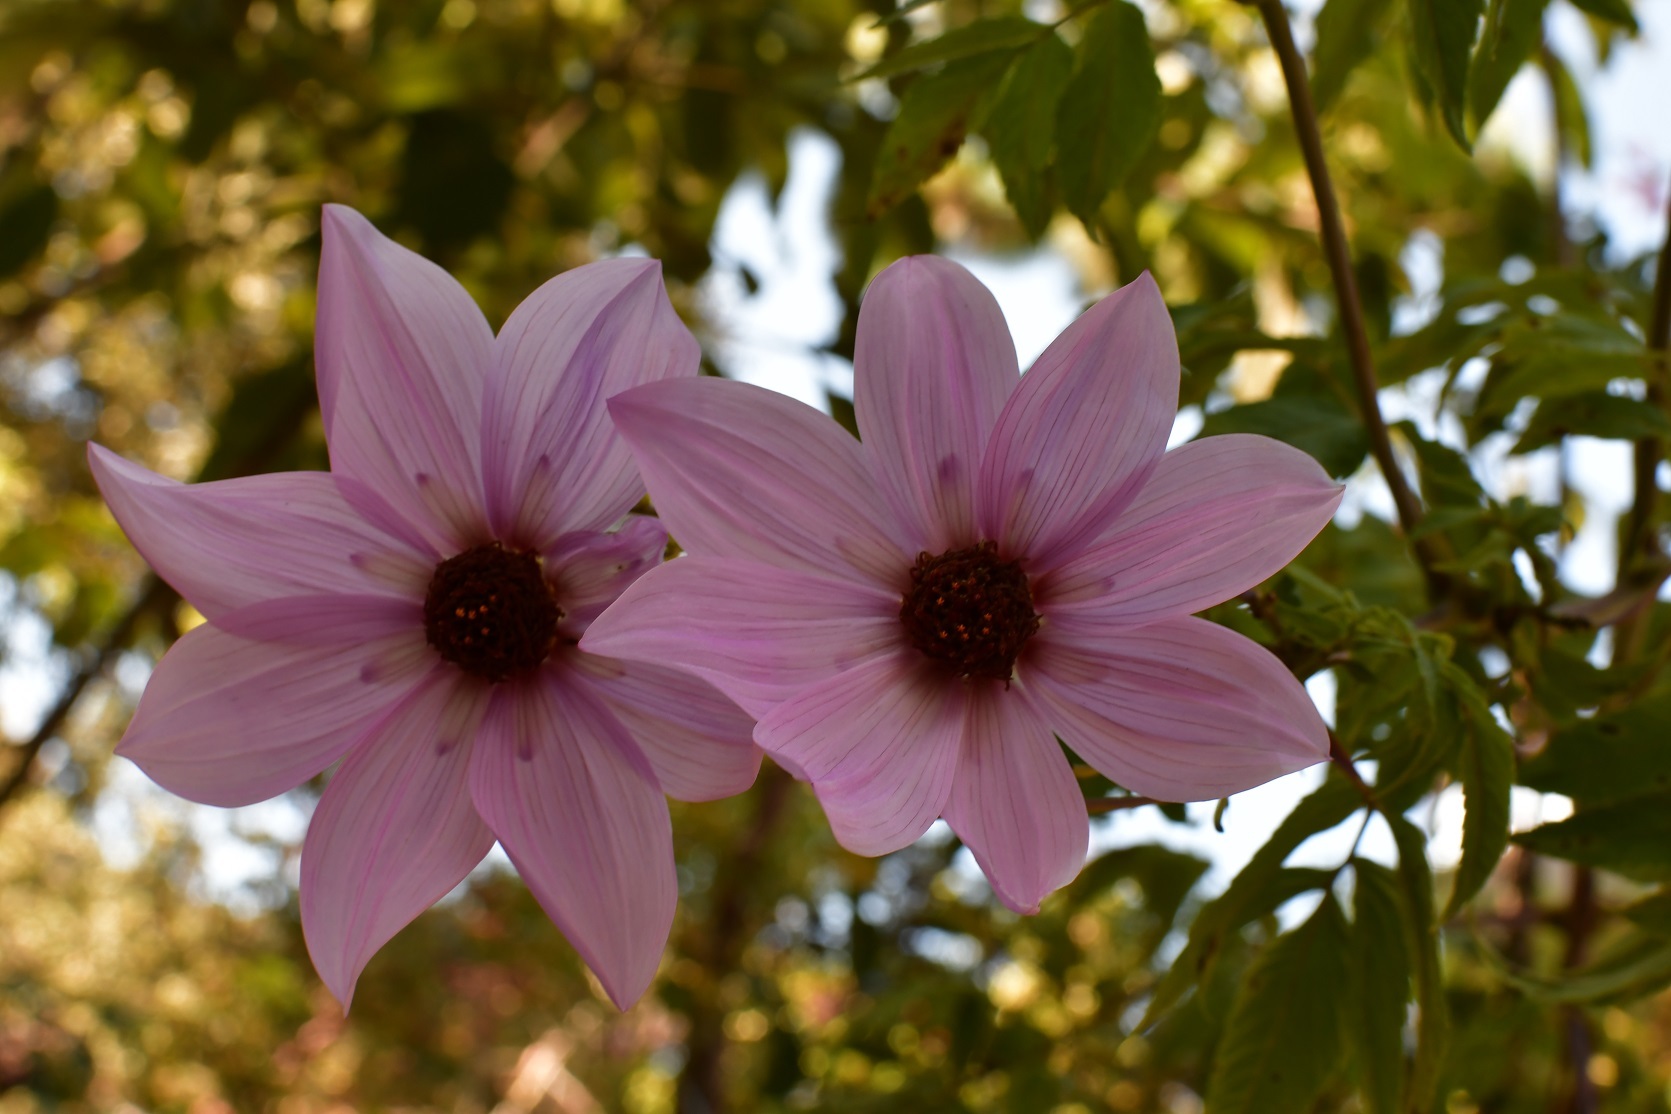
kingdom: Plantae
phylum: Tracheophyta
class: Magnoliopsida
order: Asterales
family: Asteraceae
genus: Dahlia
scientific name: Dahlia imperialis
